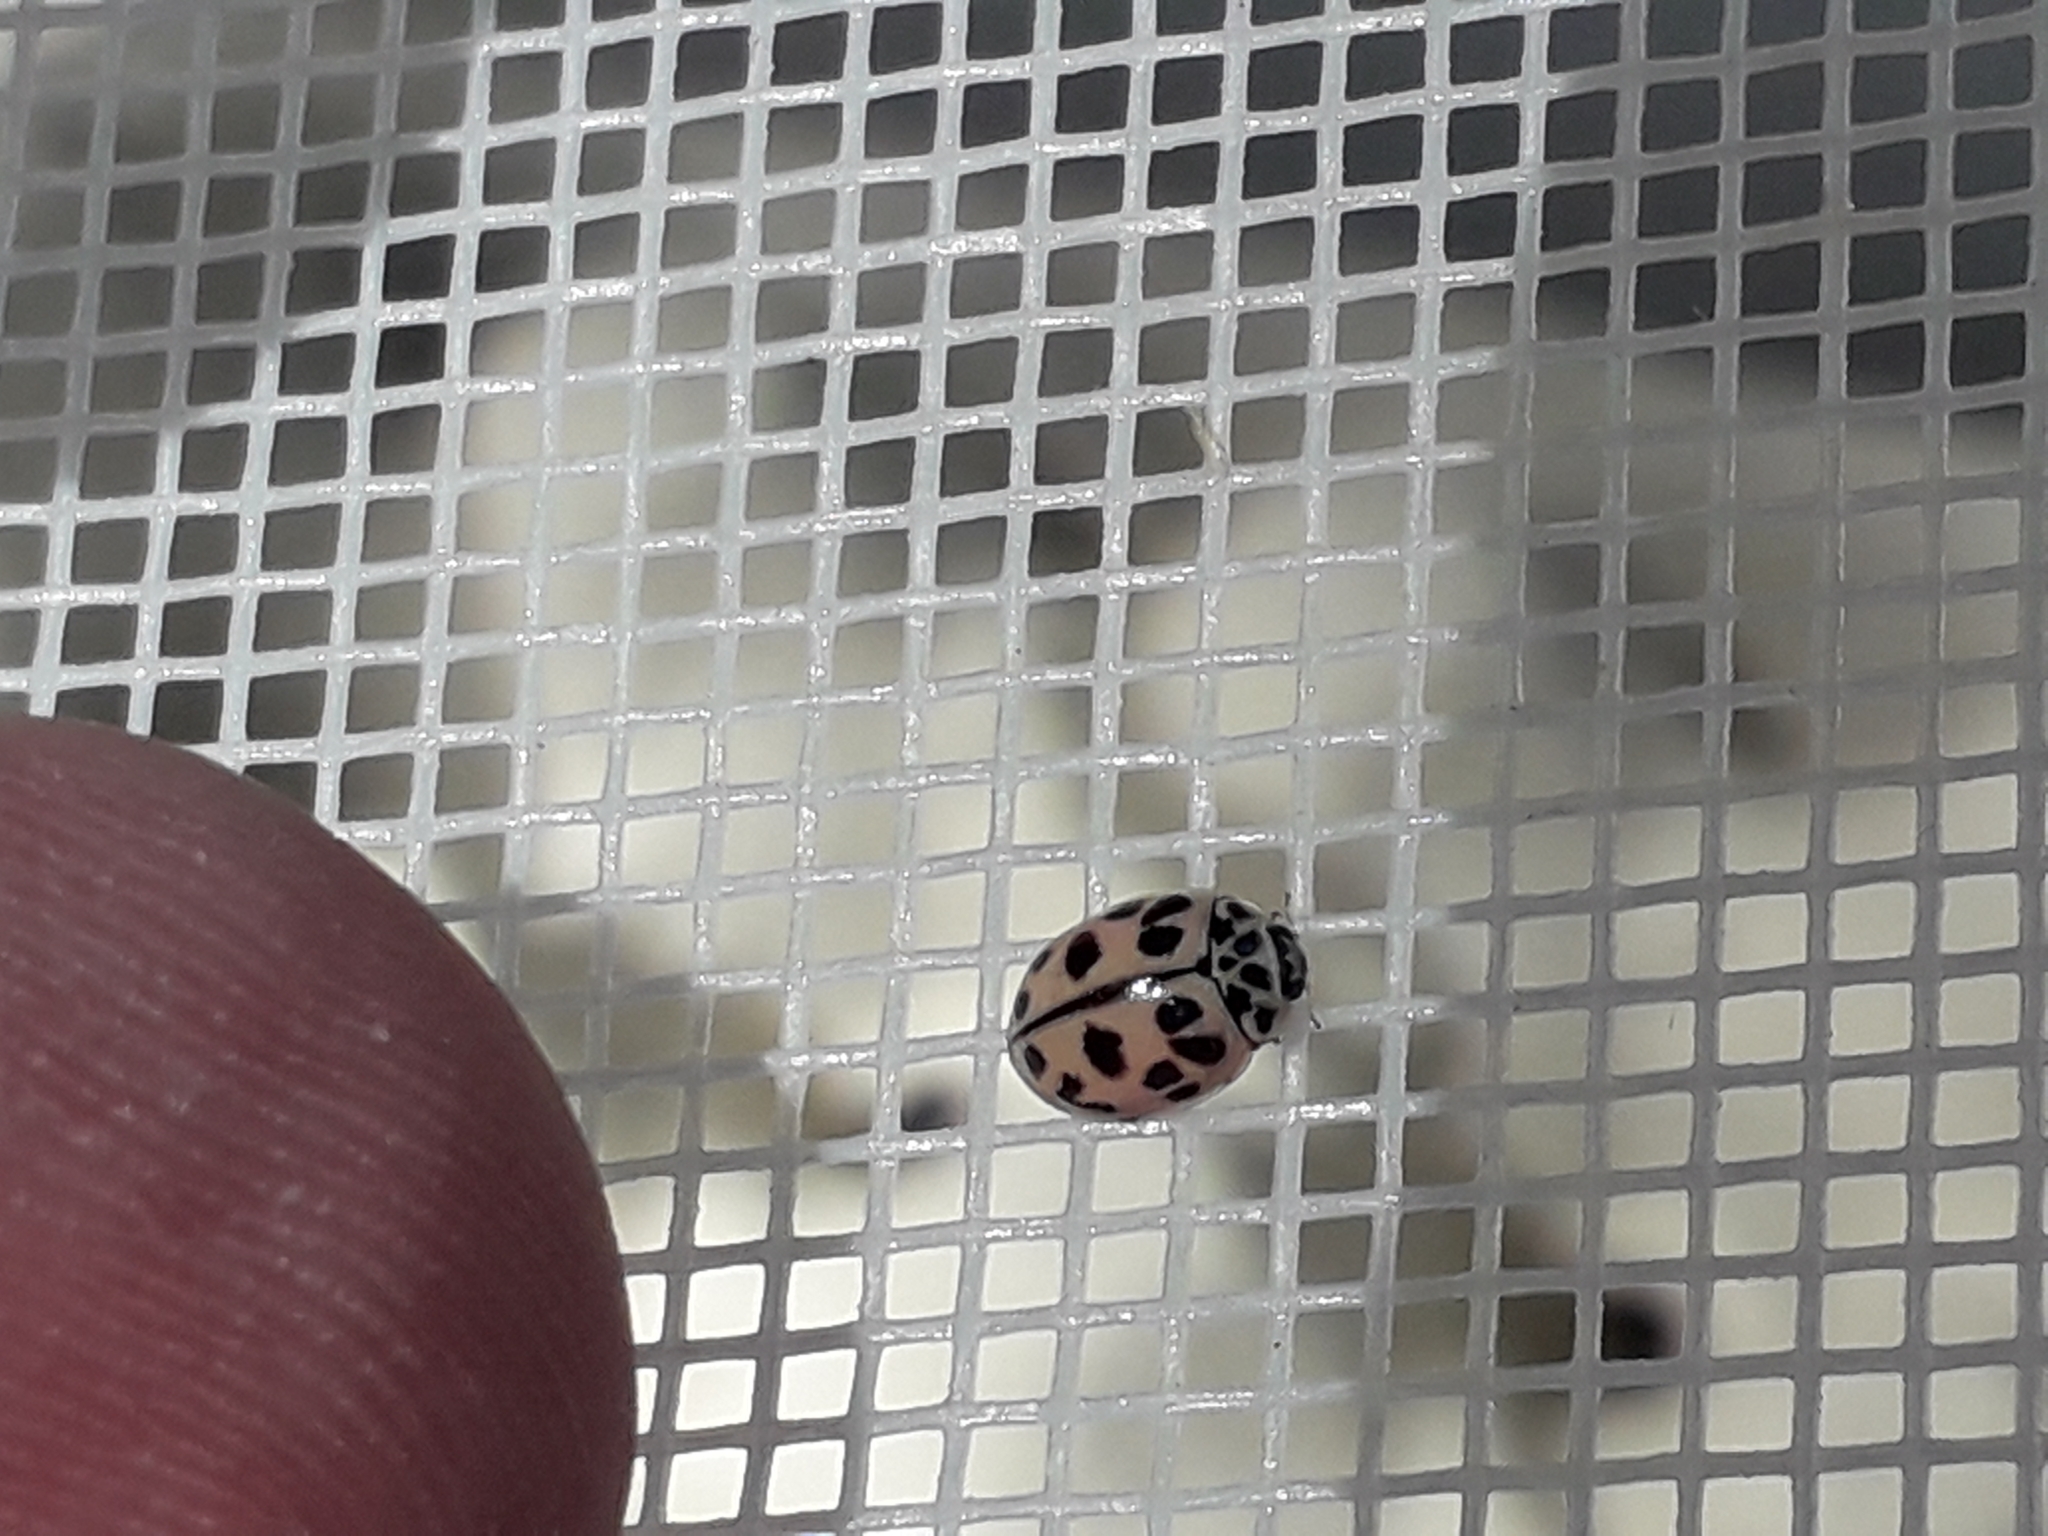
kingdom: Animalia
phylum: Arthropoda
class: Insecta
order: Coleoptera
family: Coccinellidae
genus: Oenopia
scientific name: Oenopia conglobata
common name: Ladybird beetle
